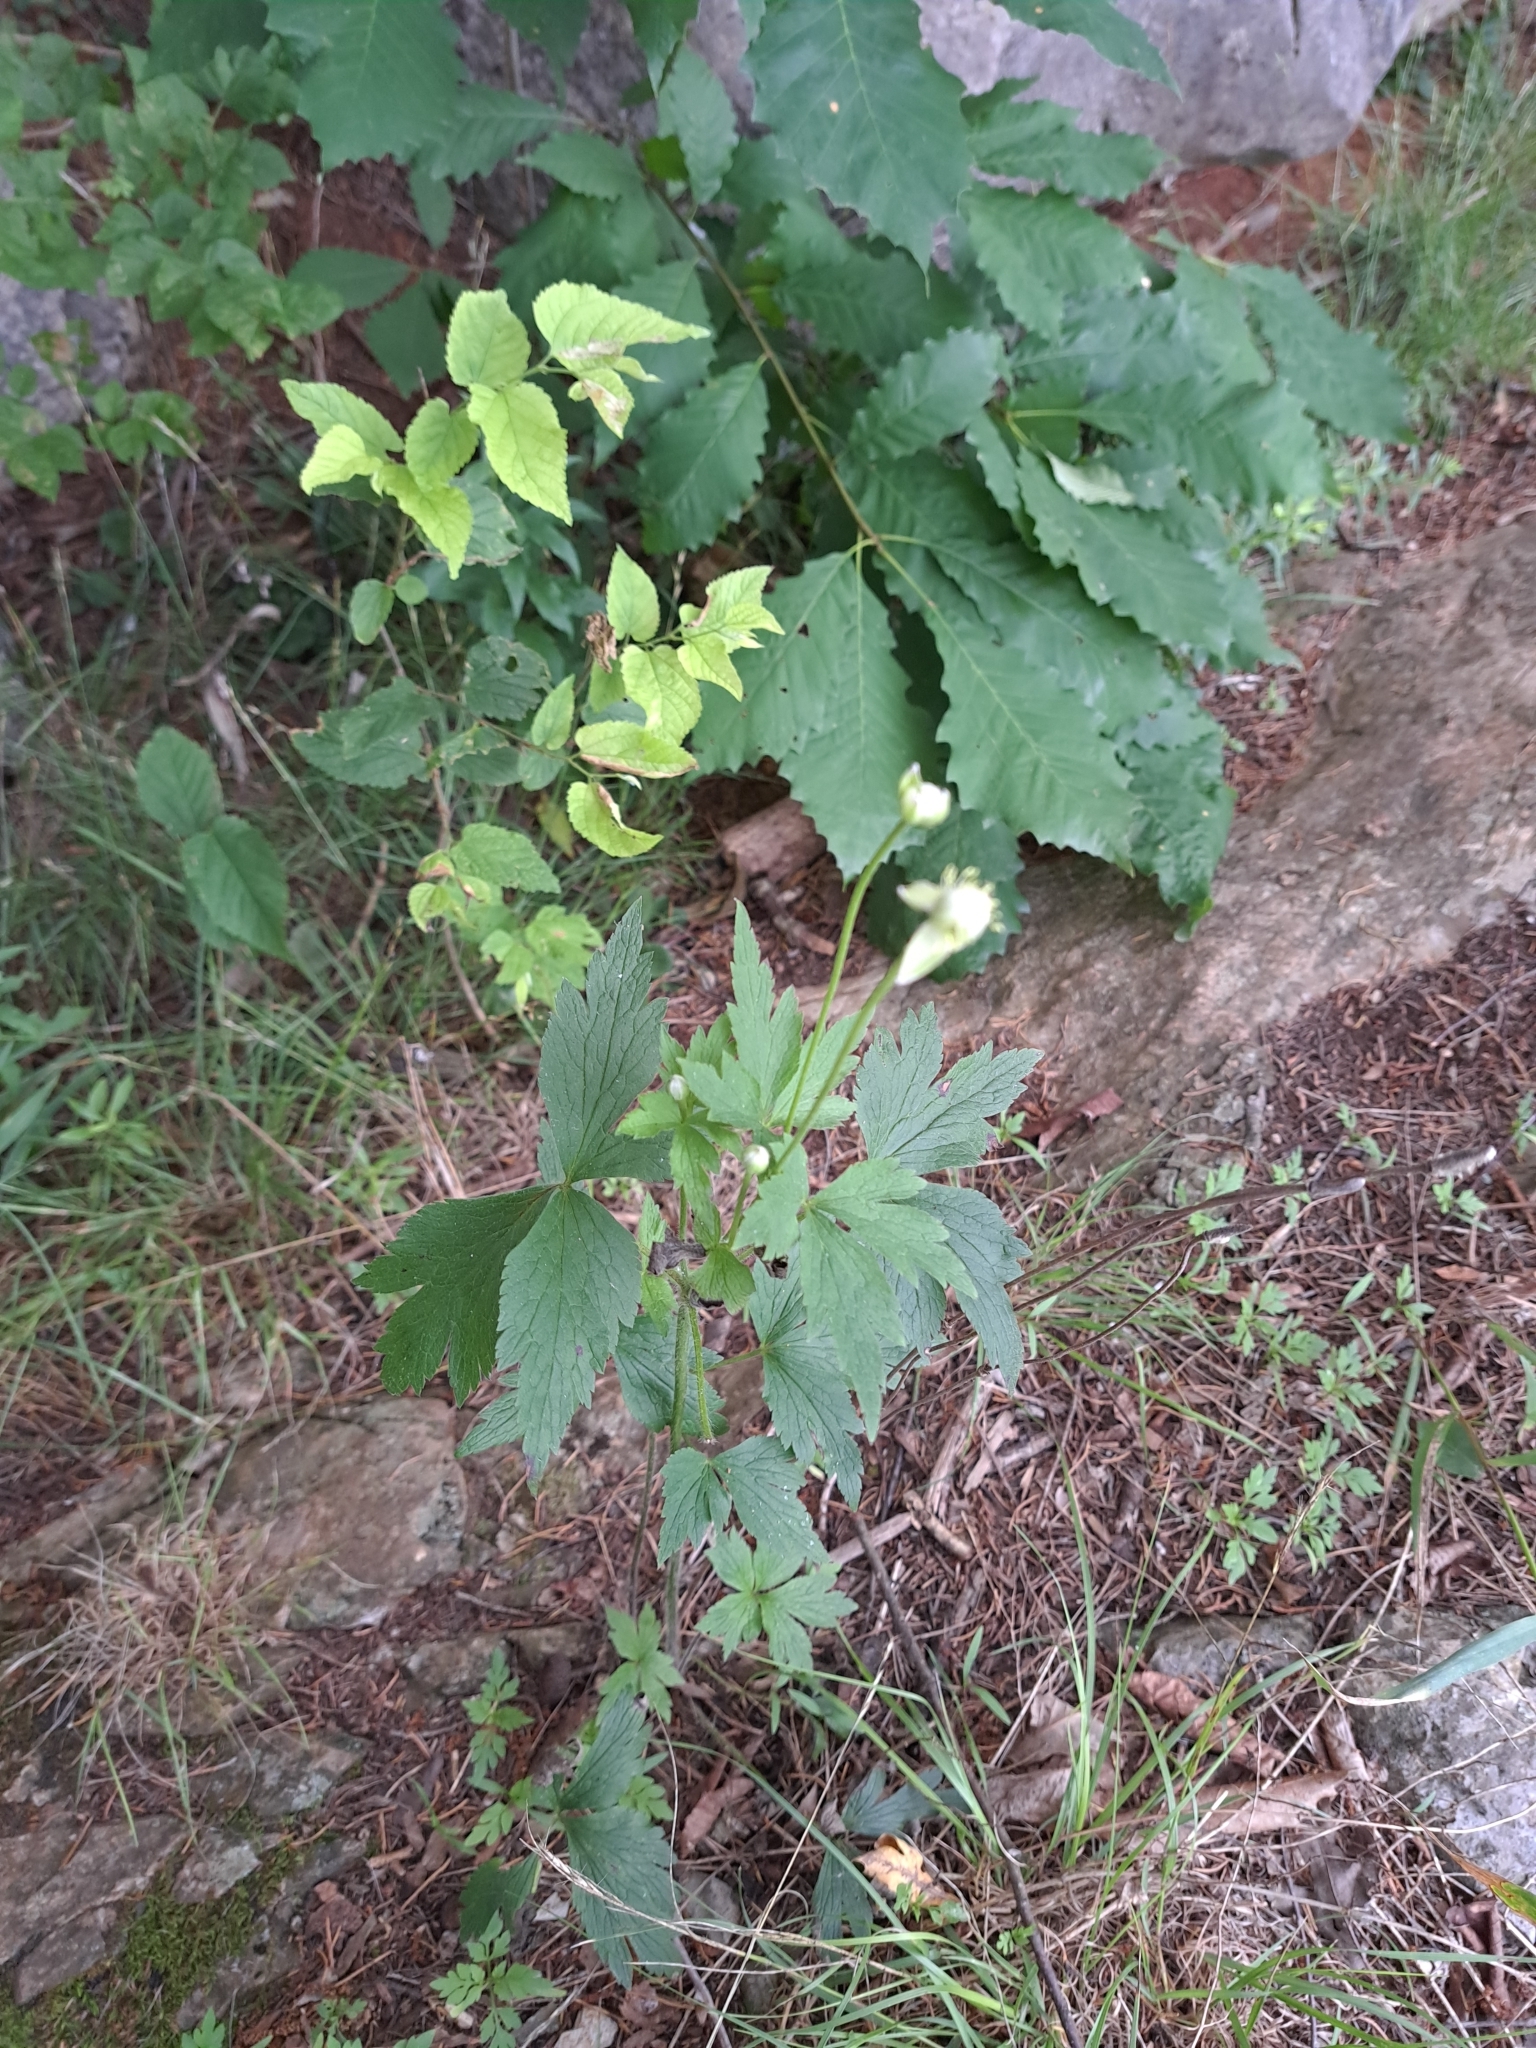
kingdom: Plantae
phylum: Tracheophyta
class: Magnoliopsida
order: Ranunculales
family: Ranunculaceae
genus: Anemone
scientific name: Anemone virginiana
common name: Tall anemone
